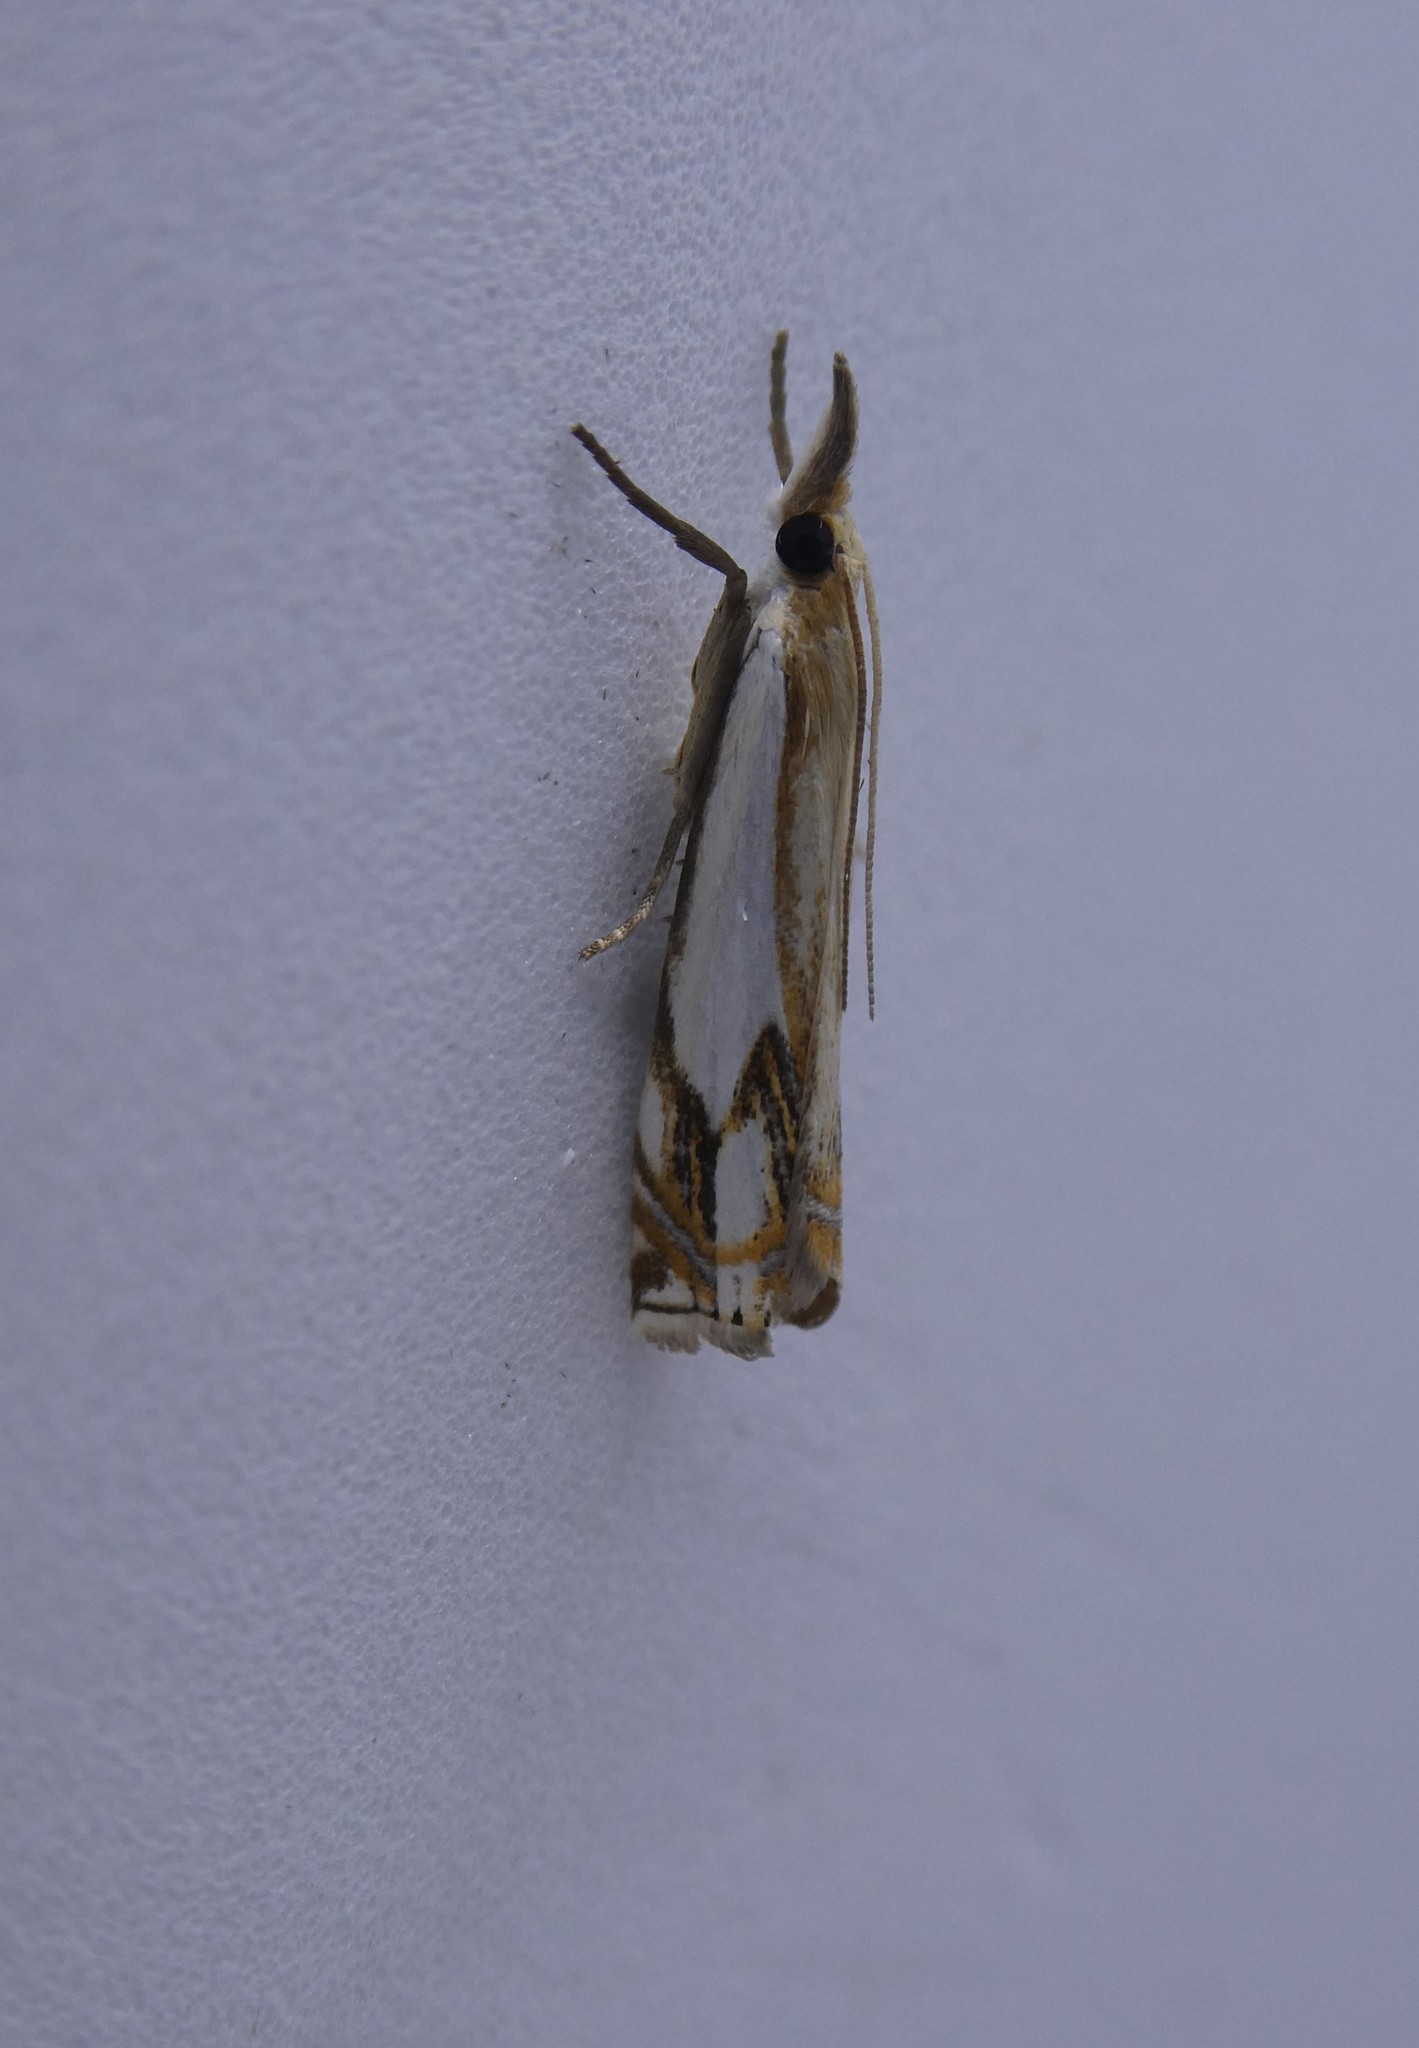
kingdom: Animalia
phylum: Arthropoda
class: Insecta
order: Lepidoptera
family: Crambidae
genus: Crambus
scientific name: Crambus agitatellus
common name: Double-banded grass-veneer
